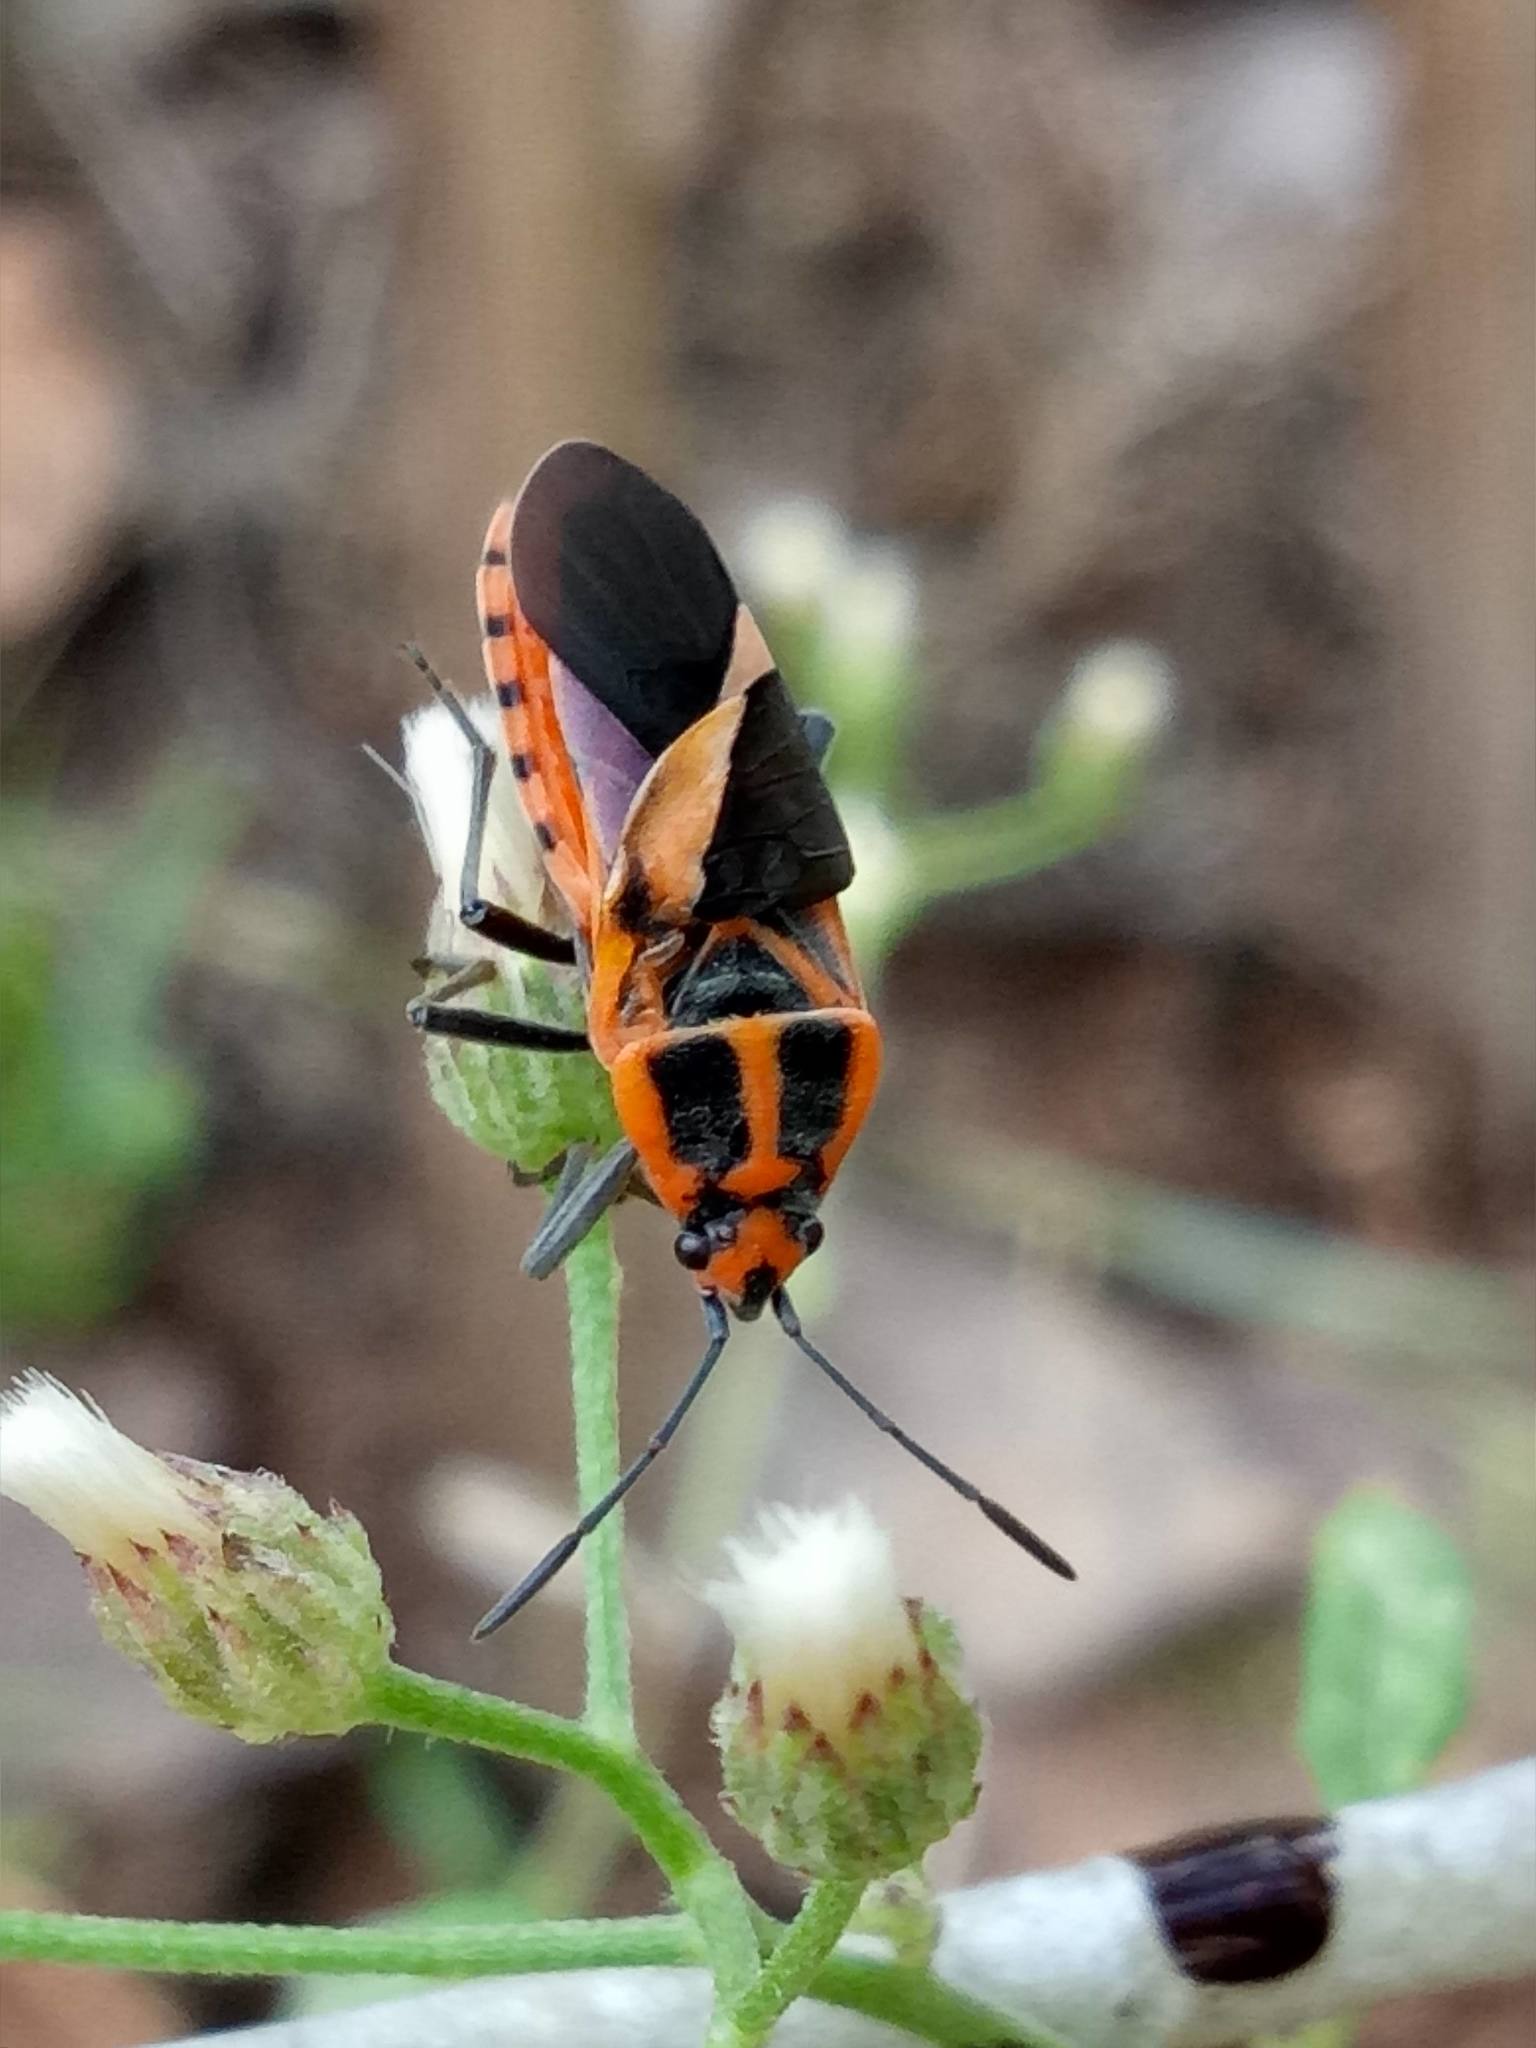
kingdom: Animalia
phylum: Arthropoda
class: Insecta
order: Hemiptera
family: Lygaeidae
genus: Spilostethus
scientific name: Spilostethus hospes
